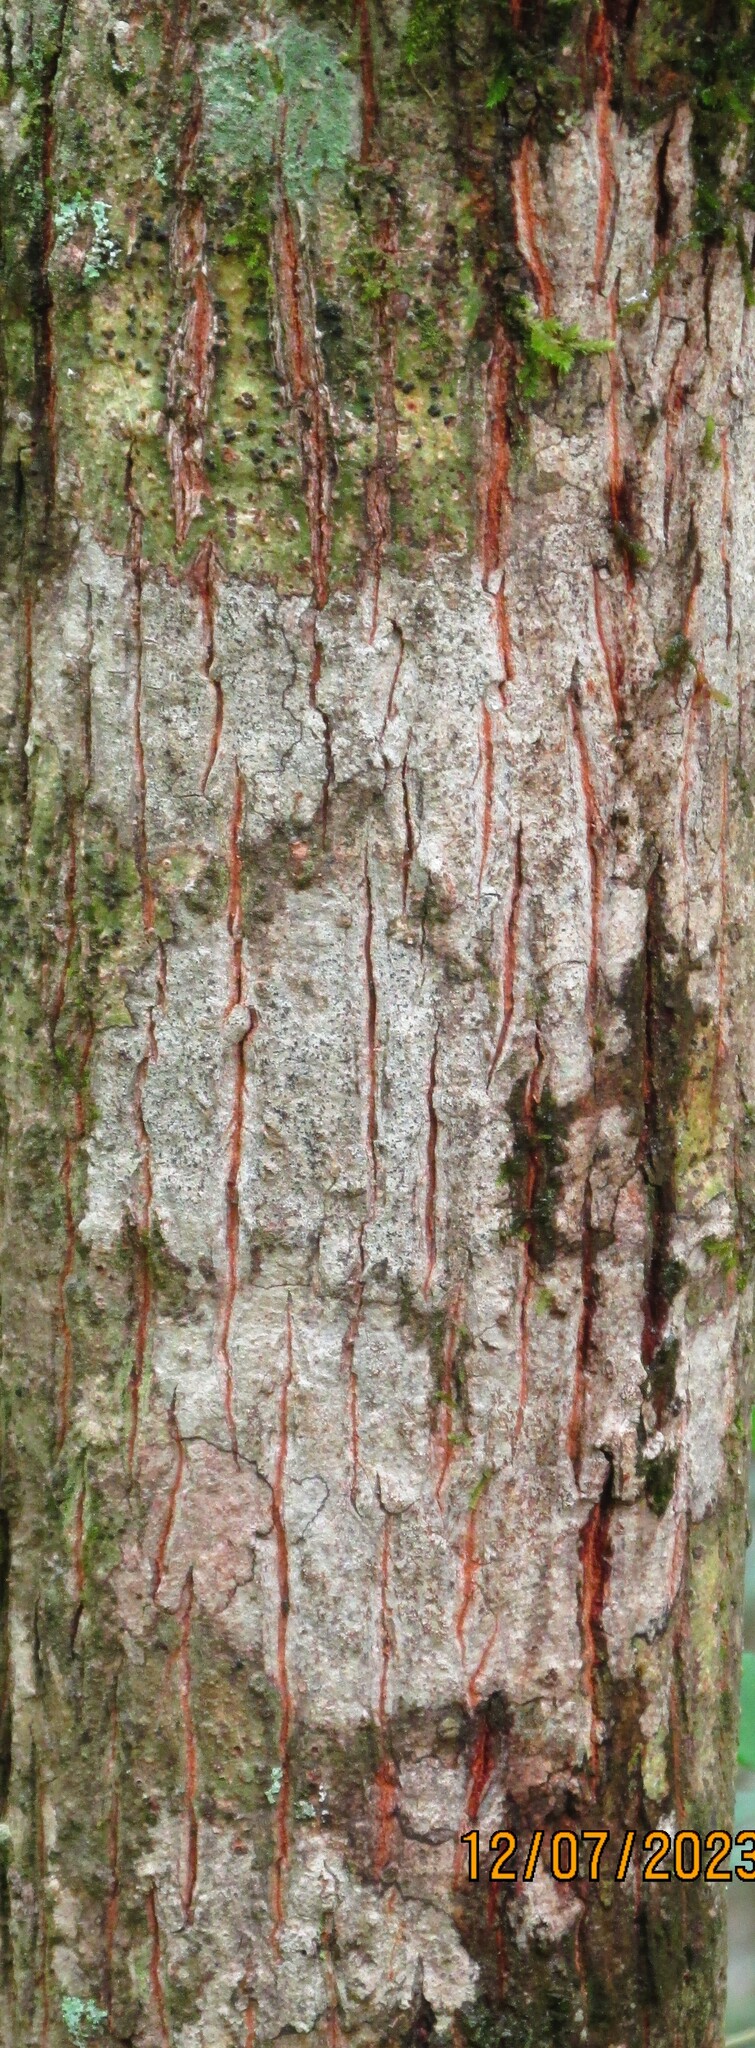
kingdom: Plantae
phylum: Tracheophyta
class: Magnoliopsida
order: Fagales
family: Juglandaceae
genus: Carya
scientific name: Carya cordiformis
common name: Bitternut hickory
